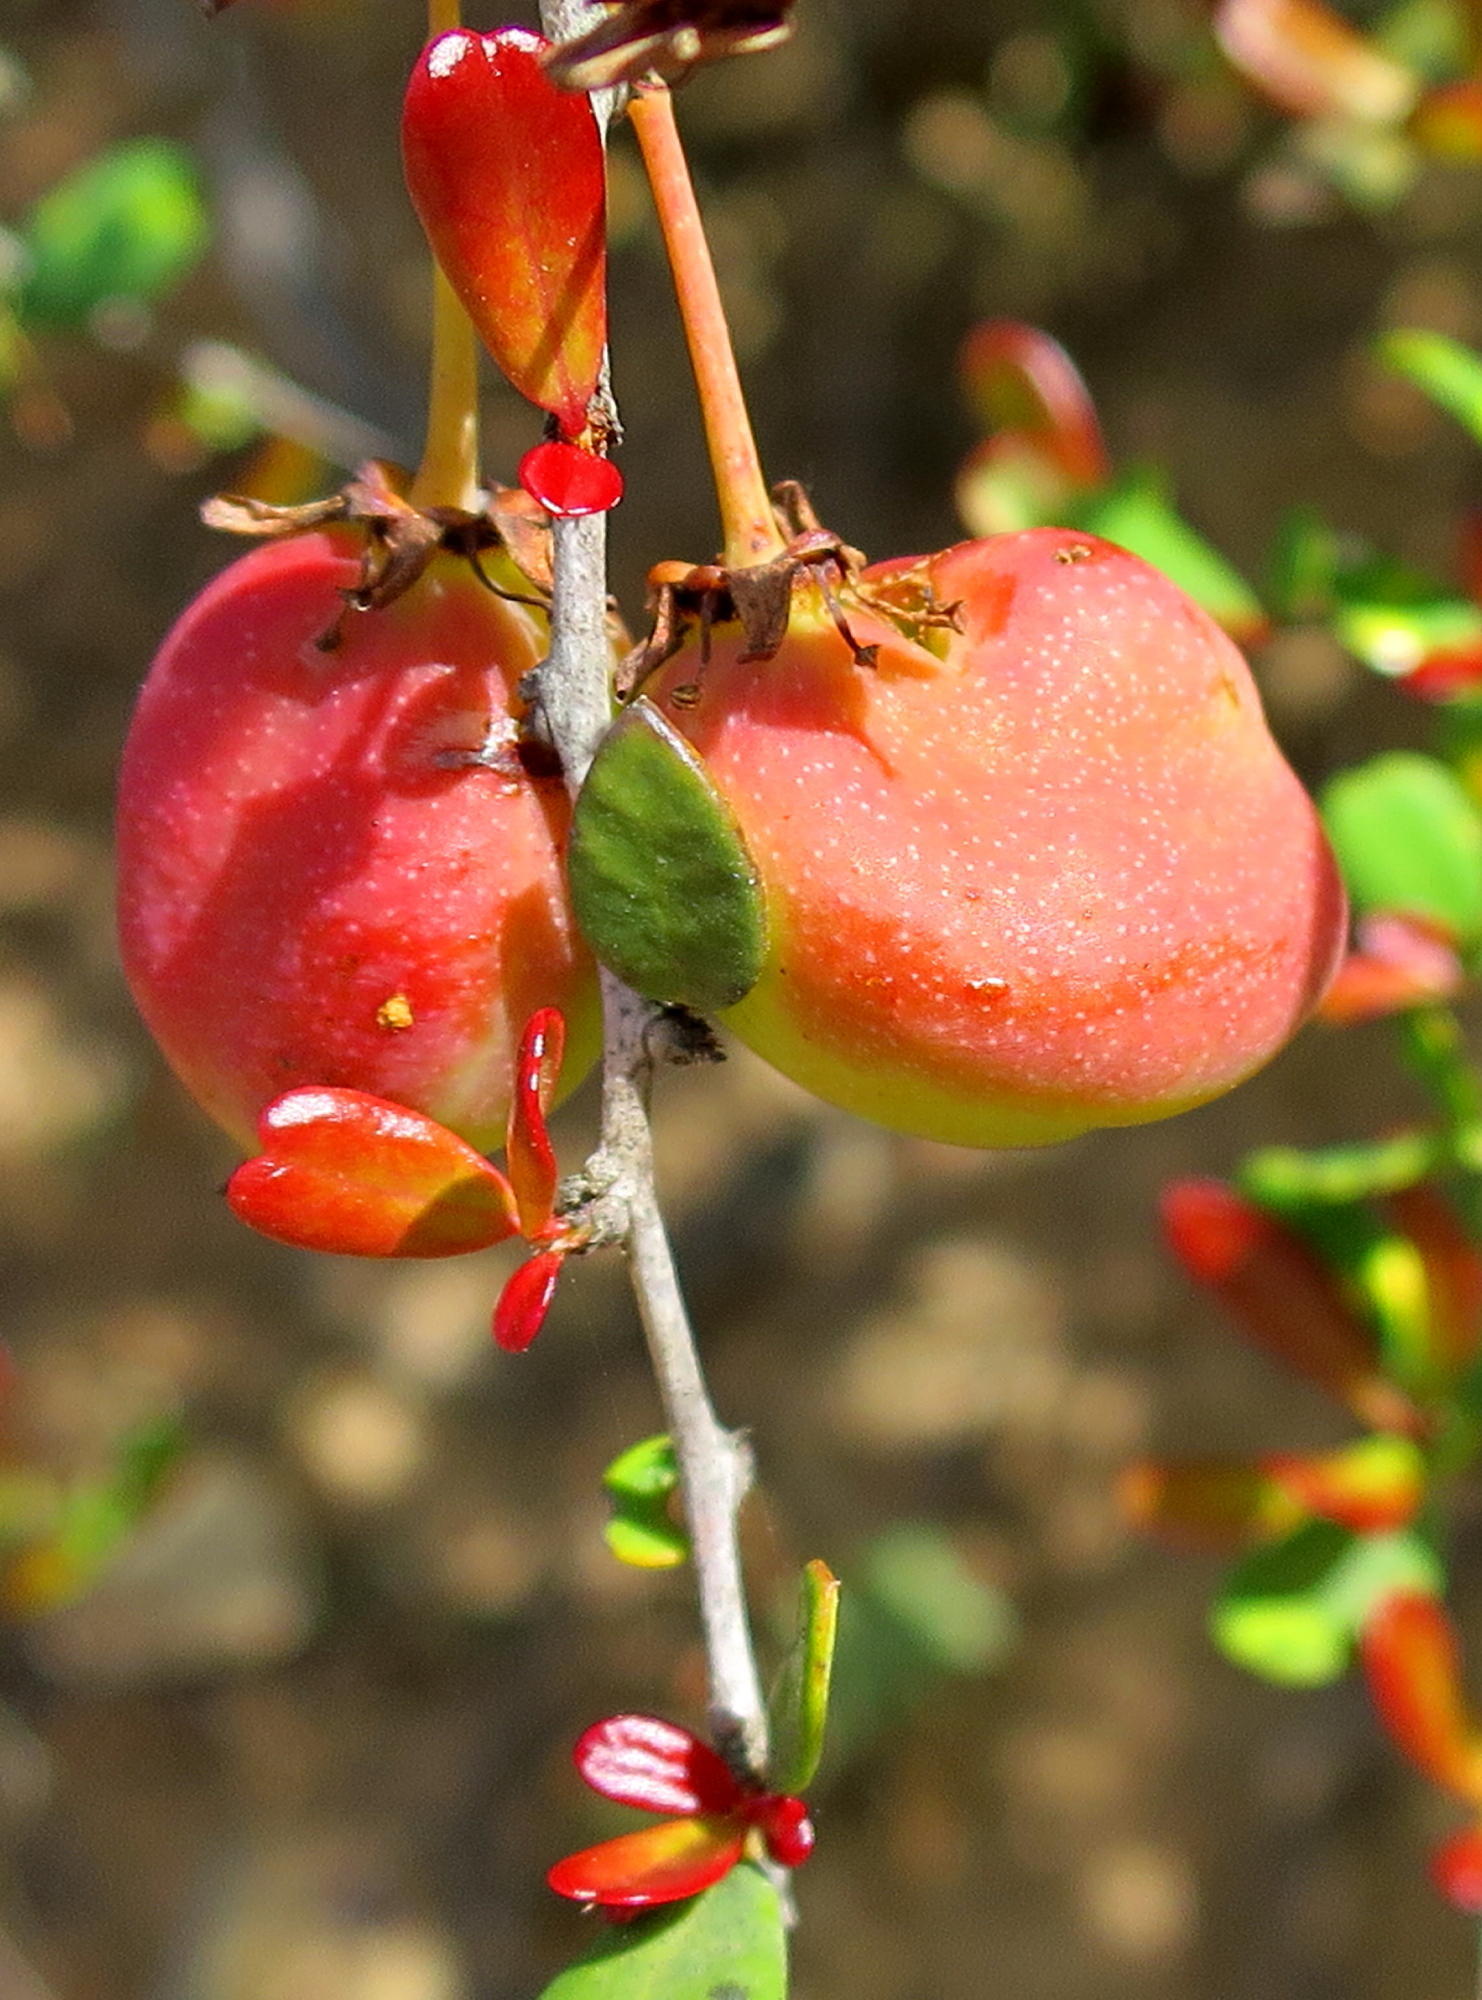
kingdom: Plantae
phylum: Tracheophyta
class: Magnoliopsida
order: Celastrales
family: Celastraceae
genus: Putterlickia
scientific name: Putterlickia pyracantha
